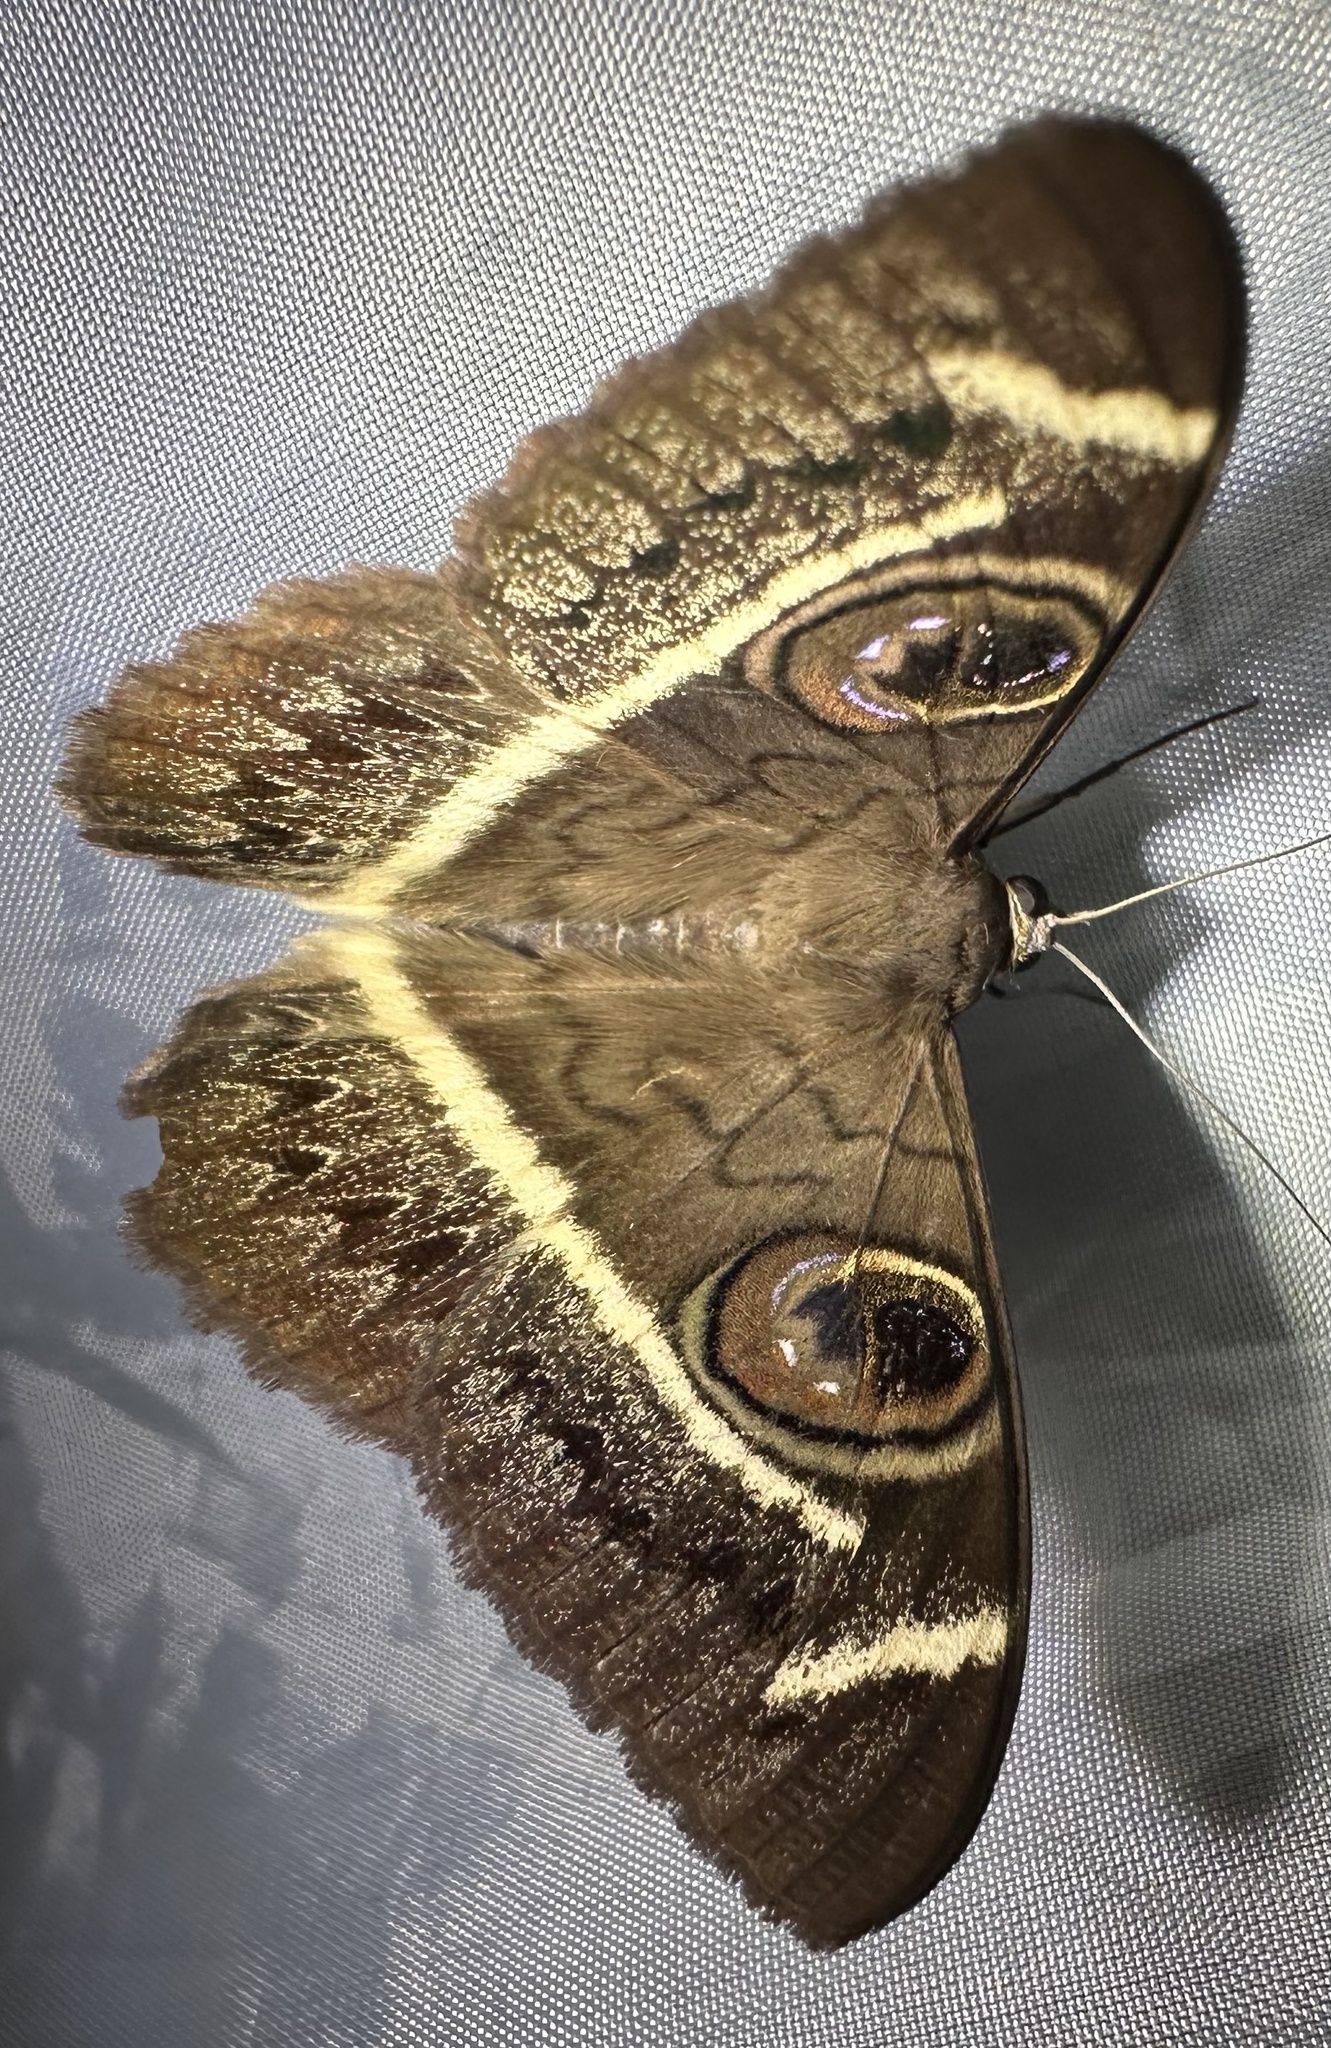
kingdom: Animalia
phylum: Arthropoda
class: Insecta
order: Lepidoptera
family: Erebidae
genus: Cyligramma
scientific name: Cyligramma latona
